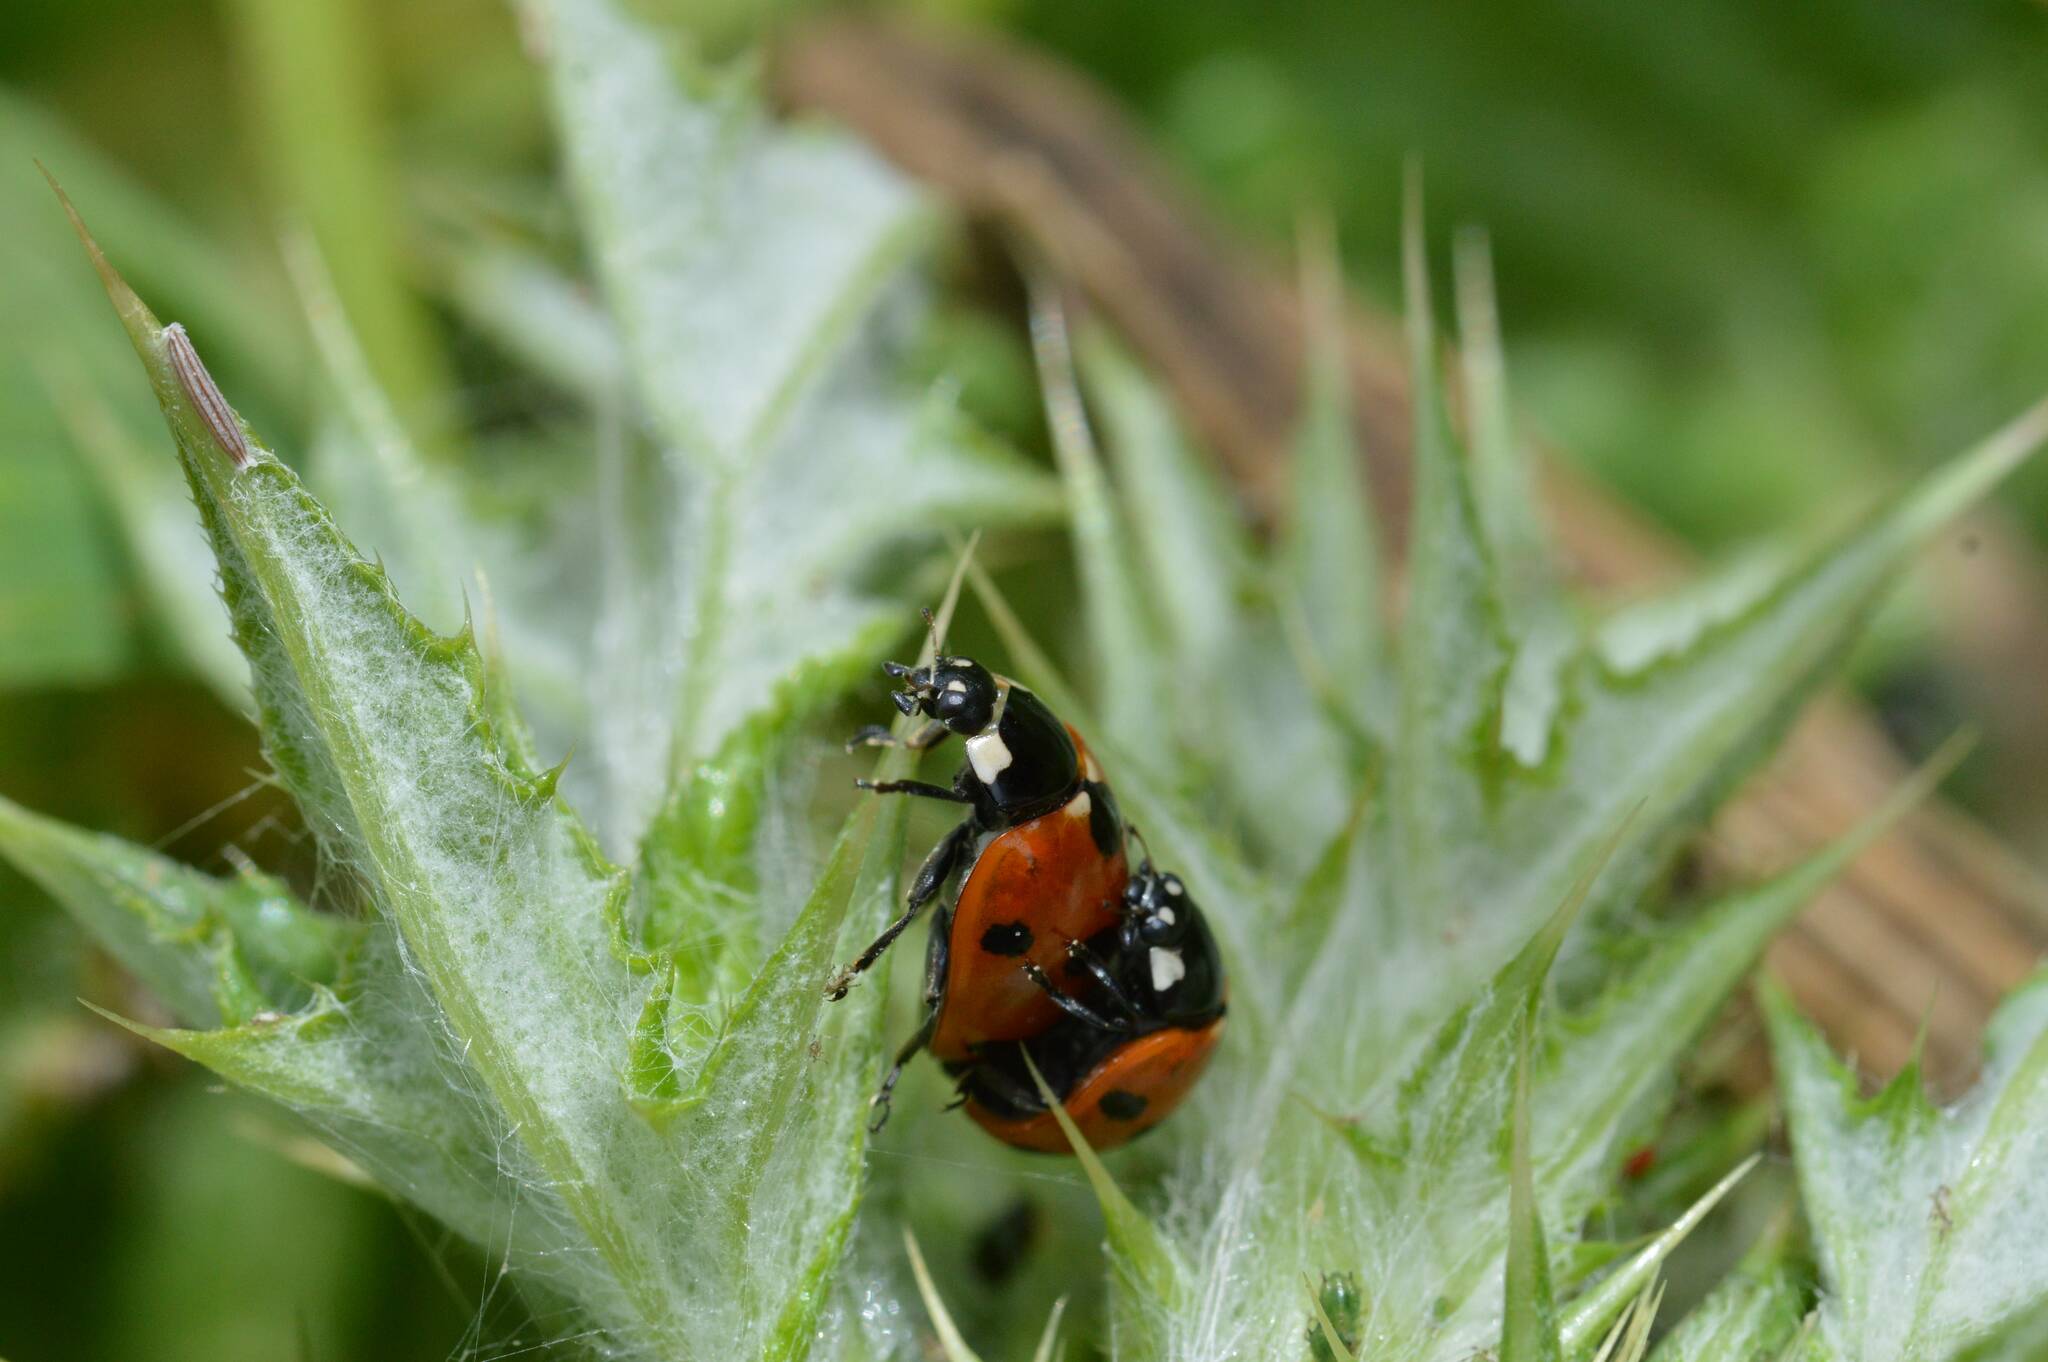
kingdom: Animalia
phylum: Arthropoda
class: Insecta
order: Coleoptera
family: Coccinellidae
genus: Coccinella
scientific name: Coccinella algerica
